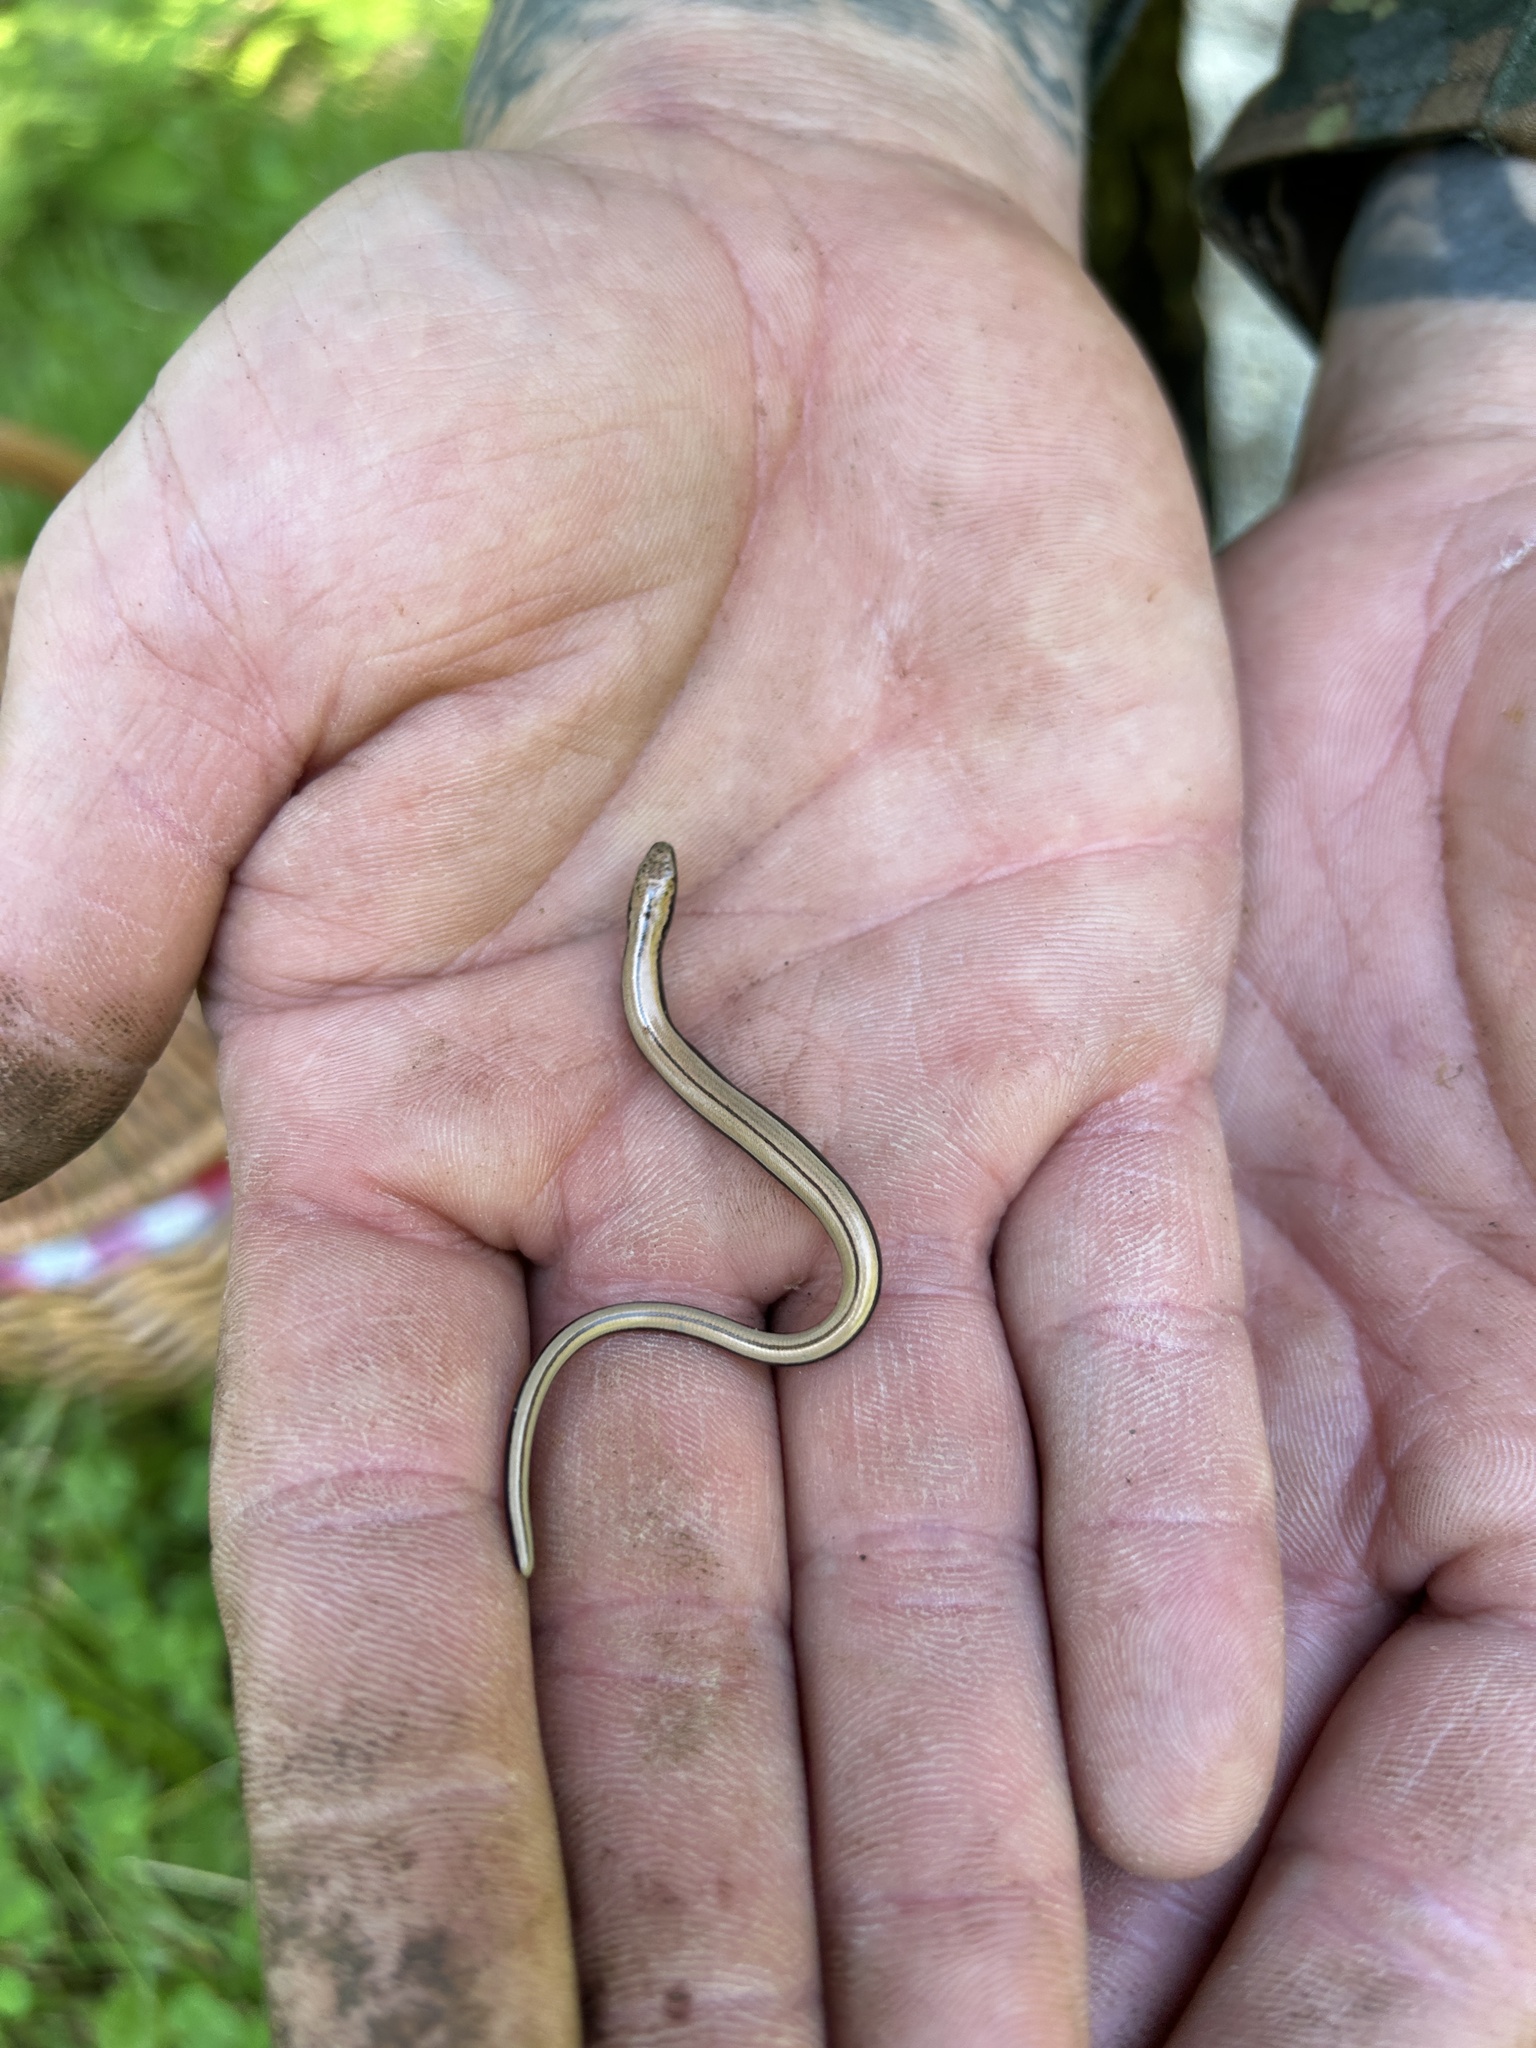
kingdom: Animalia
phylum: Chordata
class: Squamata
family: Anguidae
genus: Anguis
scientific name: Anguis fragilis
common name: Slow worm
